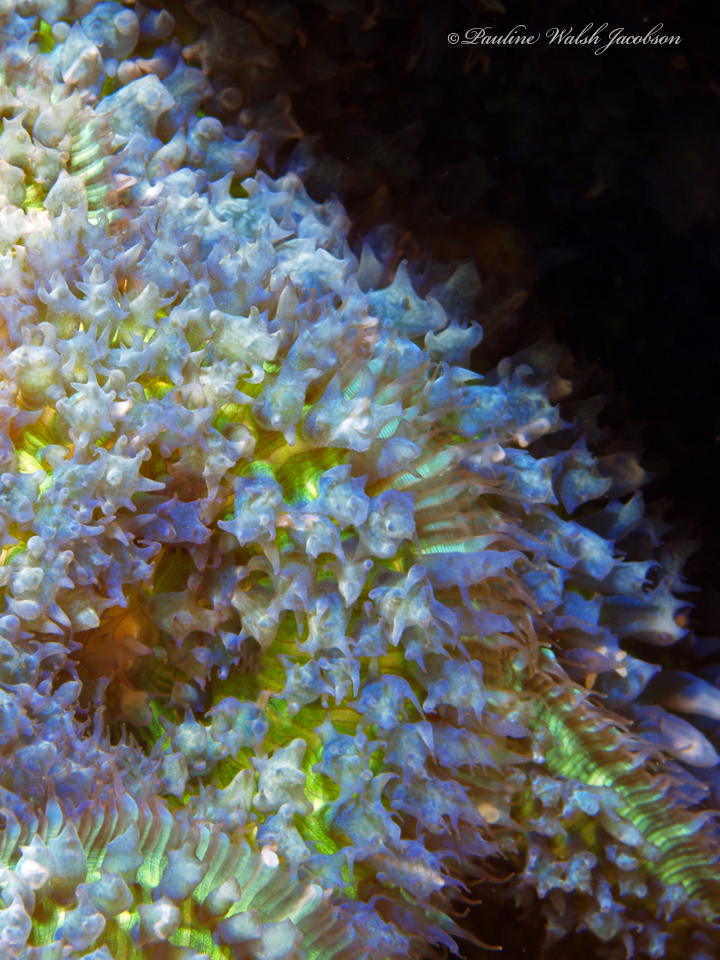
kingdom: Animalia
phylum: Cnidaria
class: Anthozoa
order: Corallimorpharia
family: Discosomidae
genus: Rhodactis
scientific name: Rhodactis osculifera
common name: Warty corallimorph
